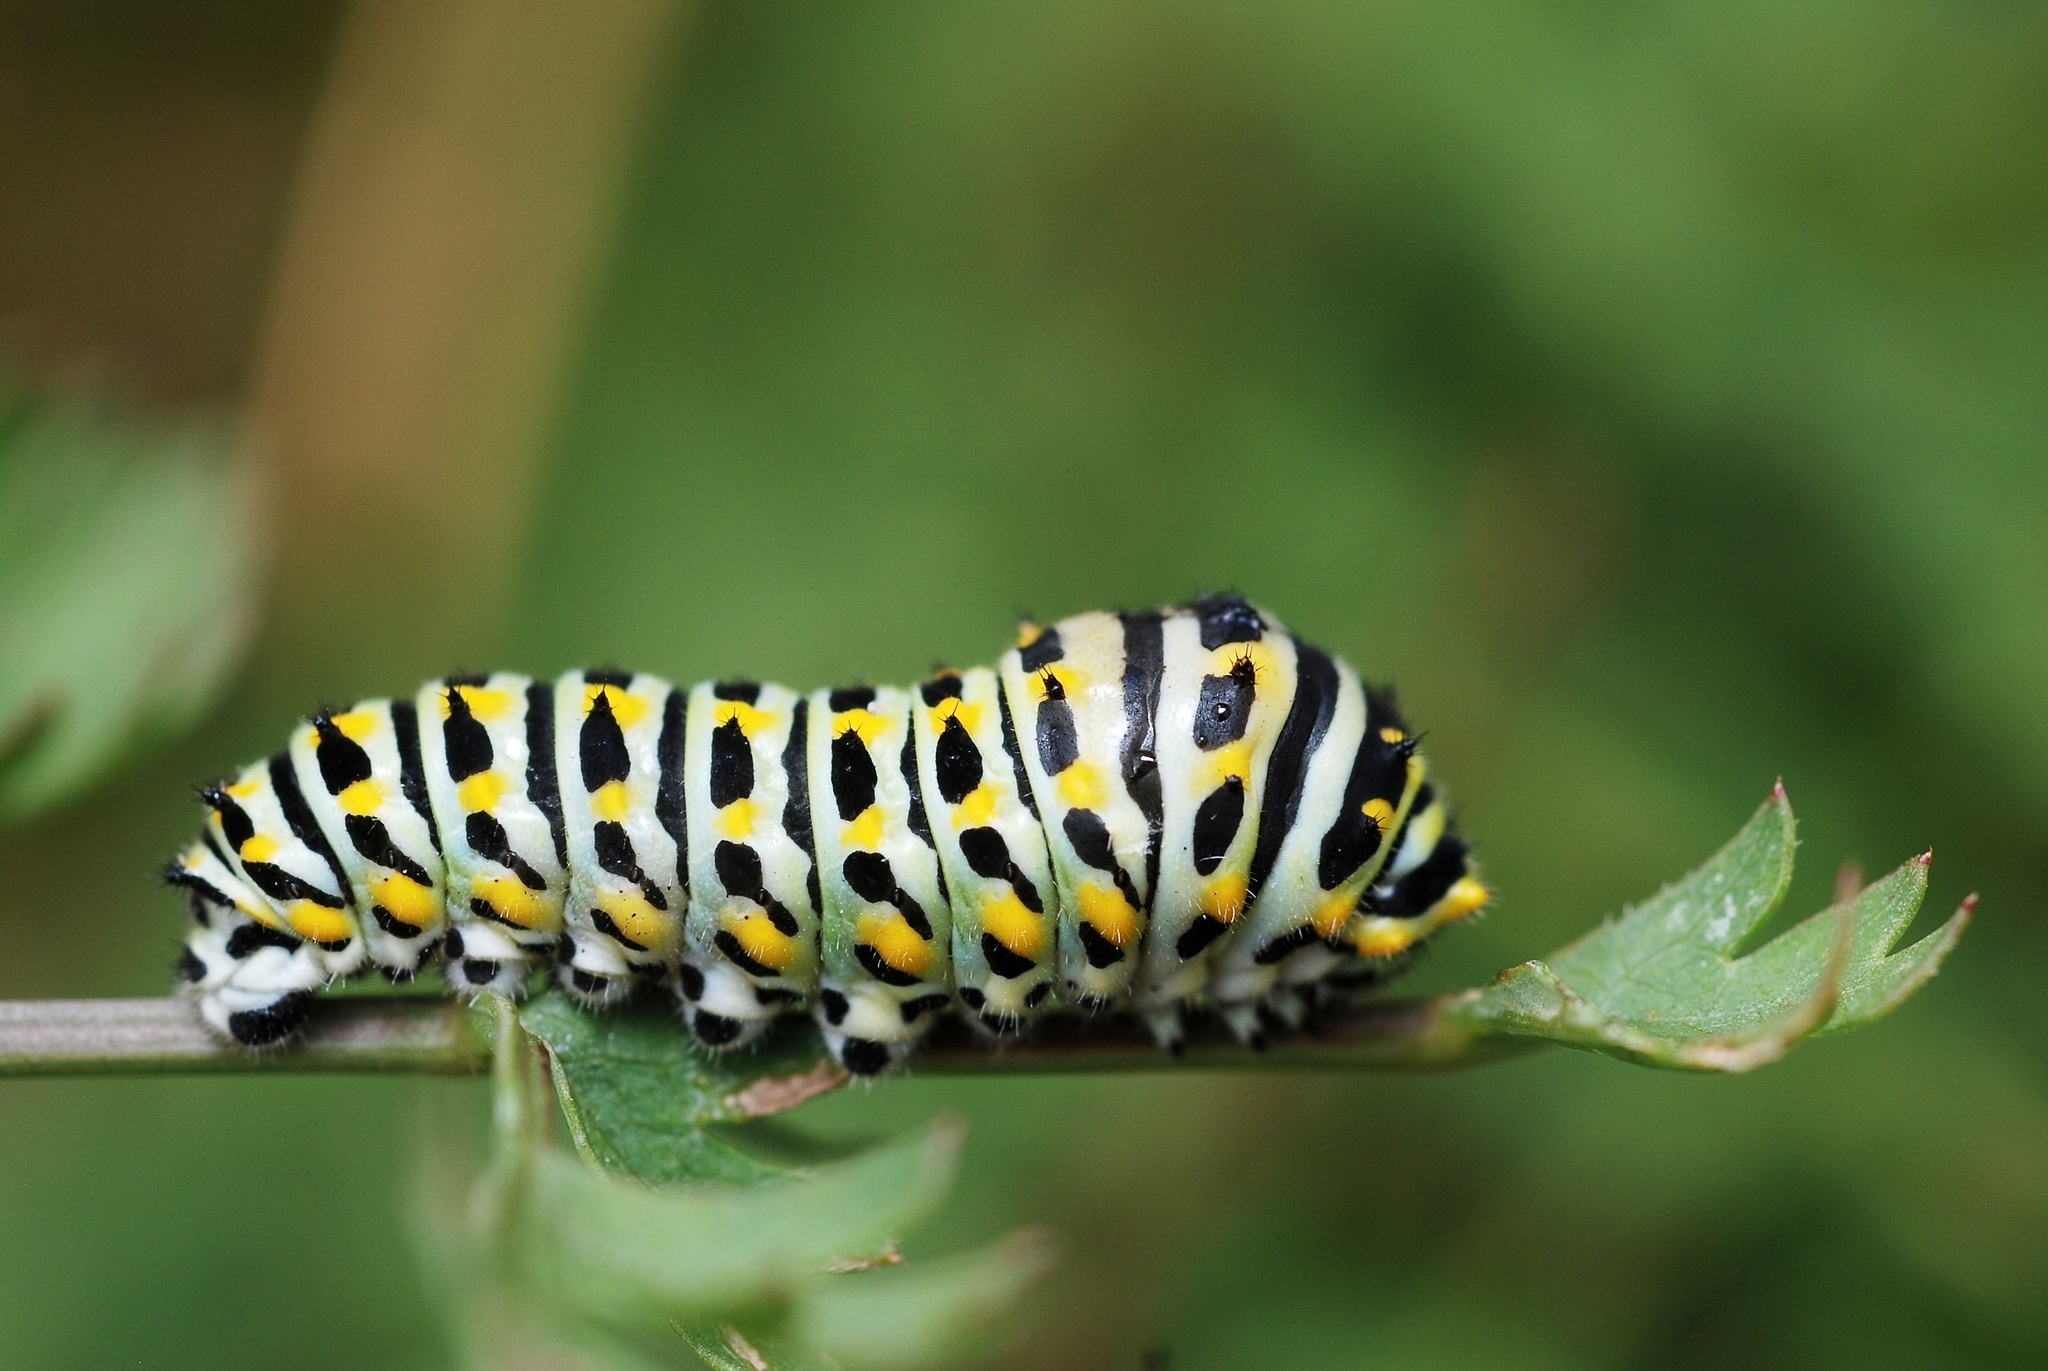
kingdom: Animalia
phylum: Arthropoda
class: Insecta
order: Lepidoptera
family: Papilionidae
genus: Papilio
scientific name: Papilio machaon
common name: Swallowtail
